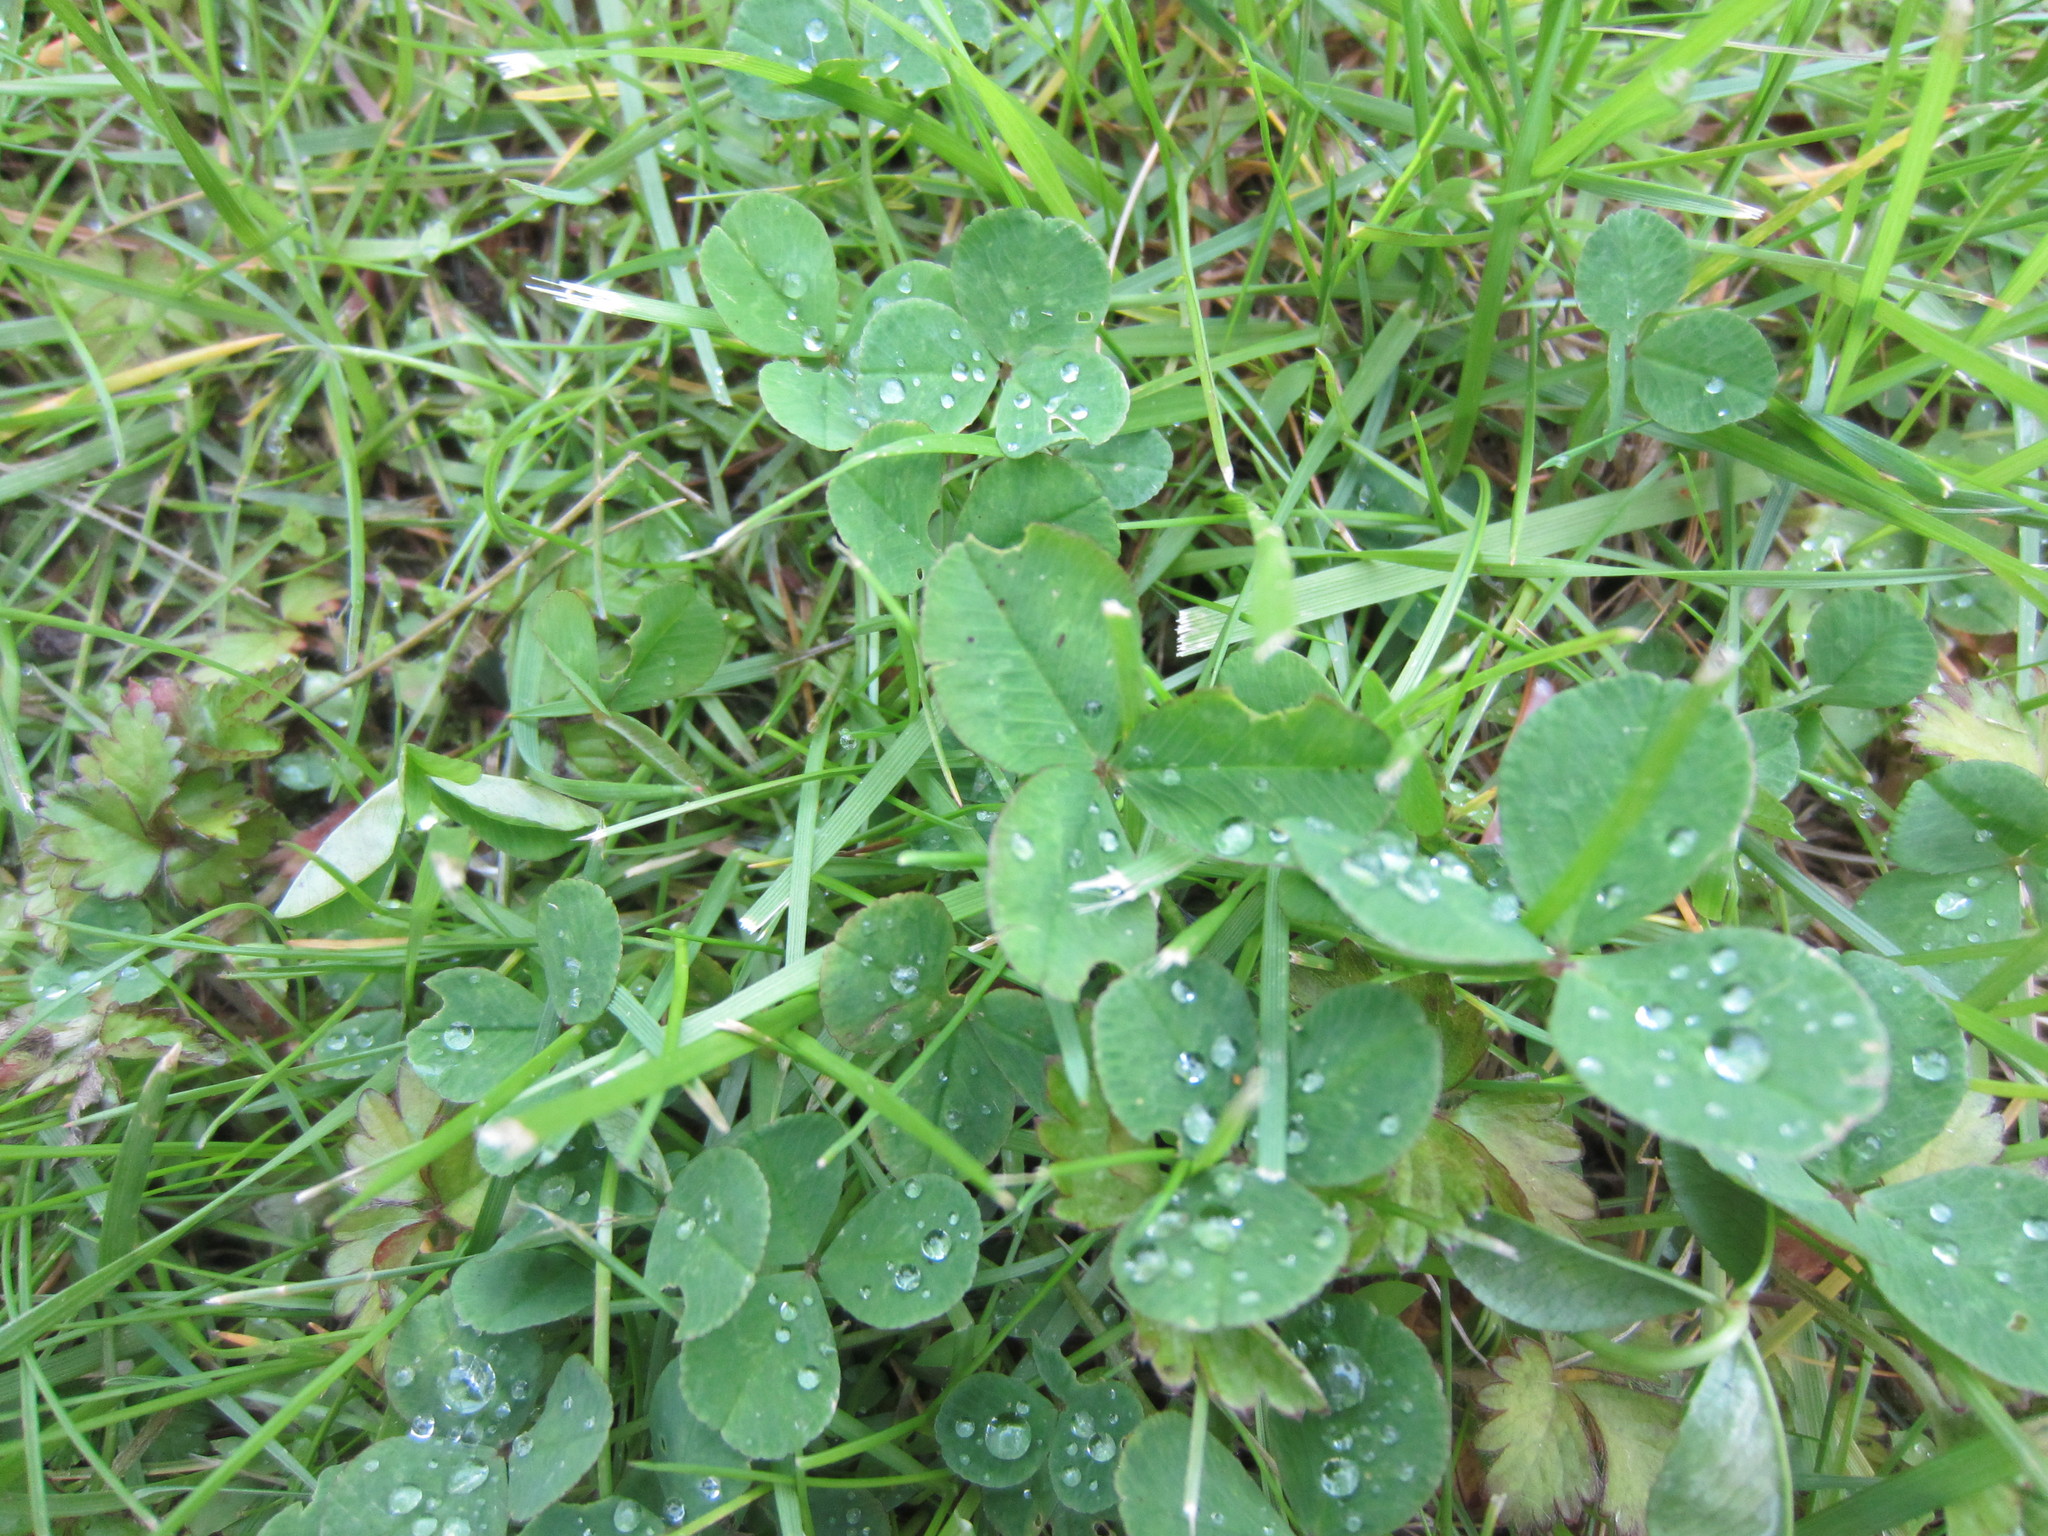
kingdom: Plantae
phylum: Tracheophyta
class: Magnoliopsida
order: Fabales
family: Fabaceae
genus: Trifolium
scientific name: Trifolium repens
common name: White clover
